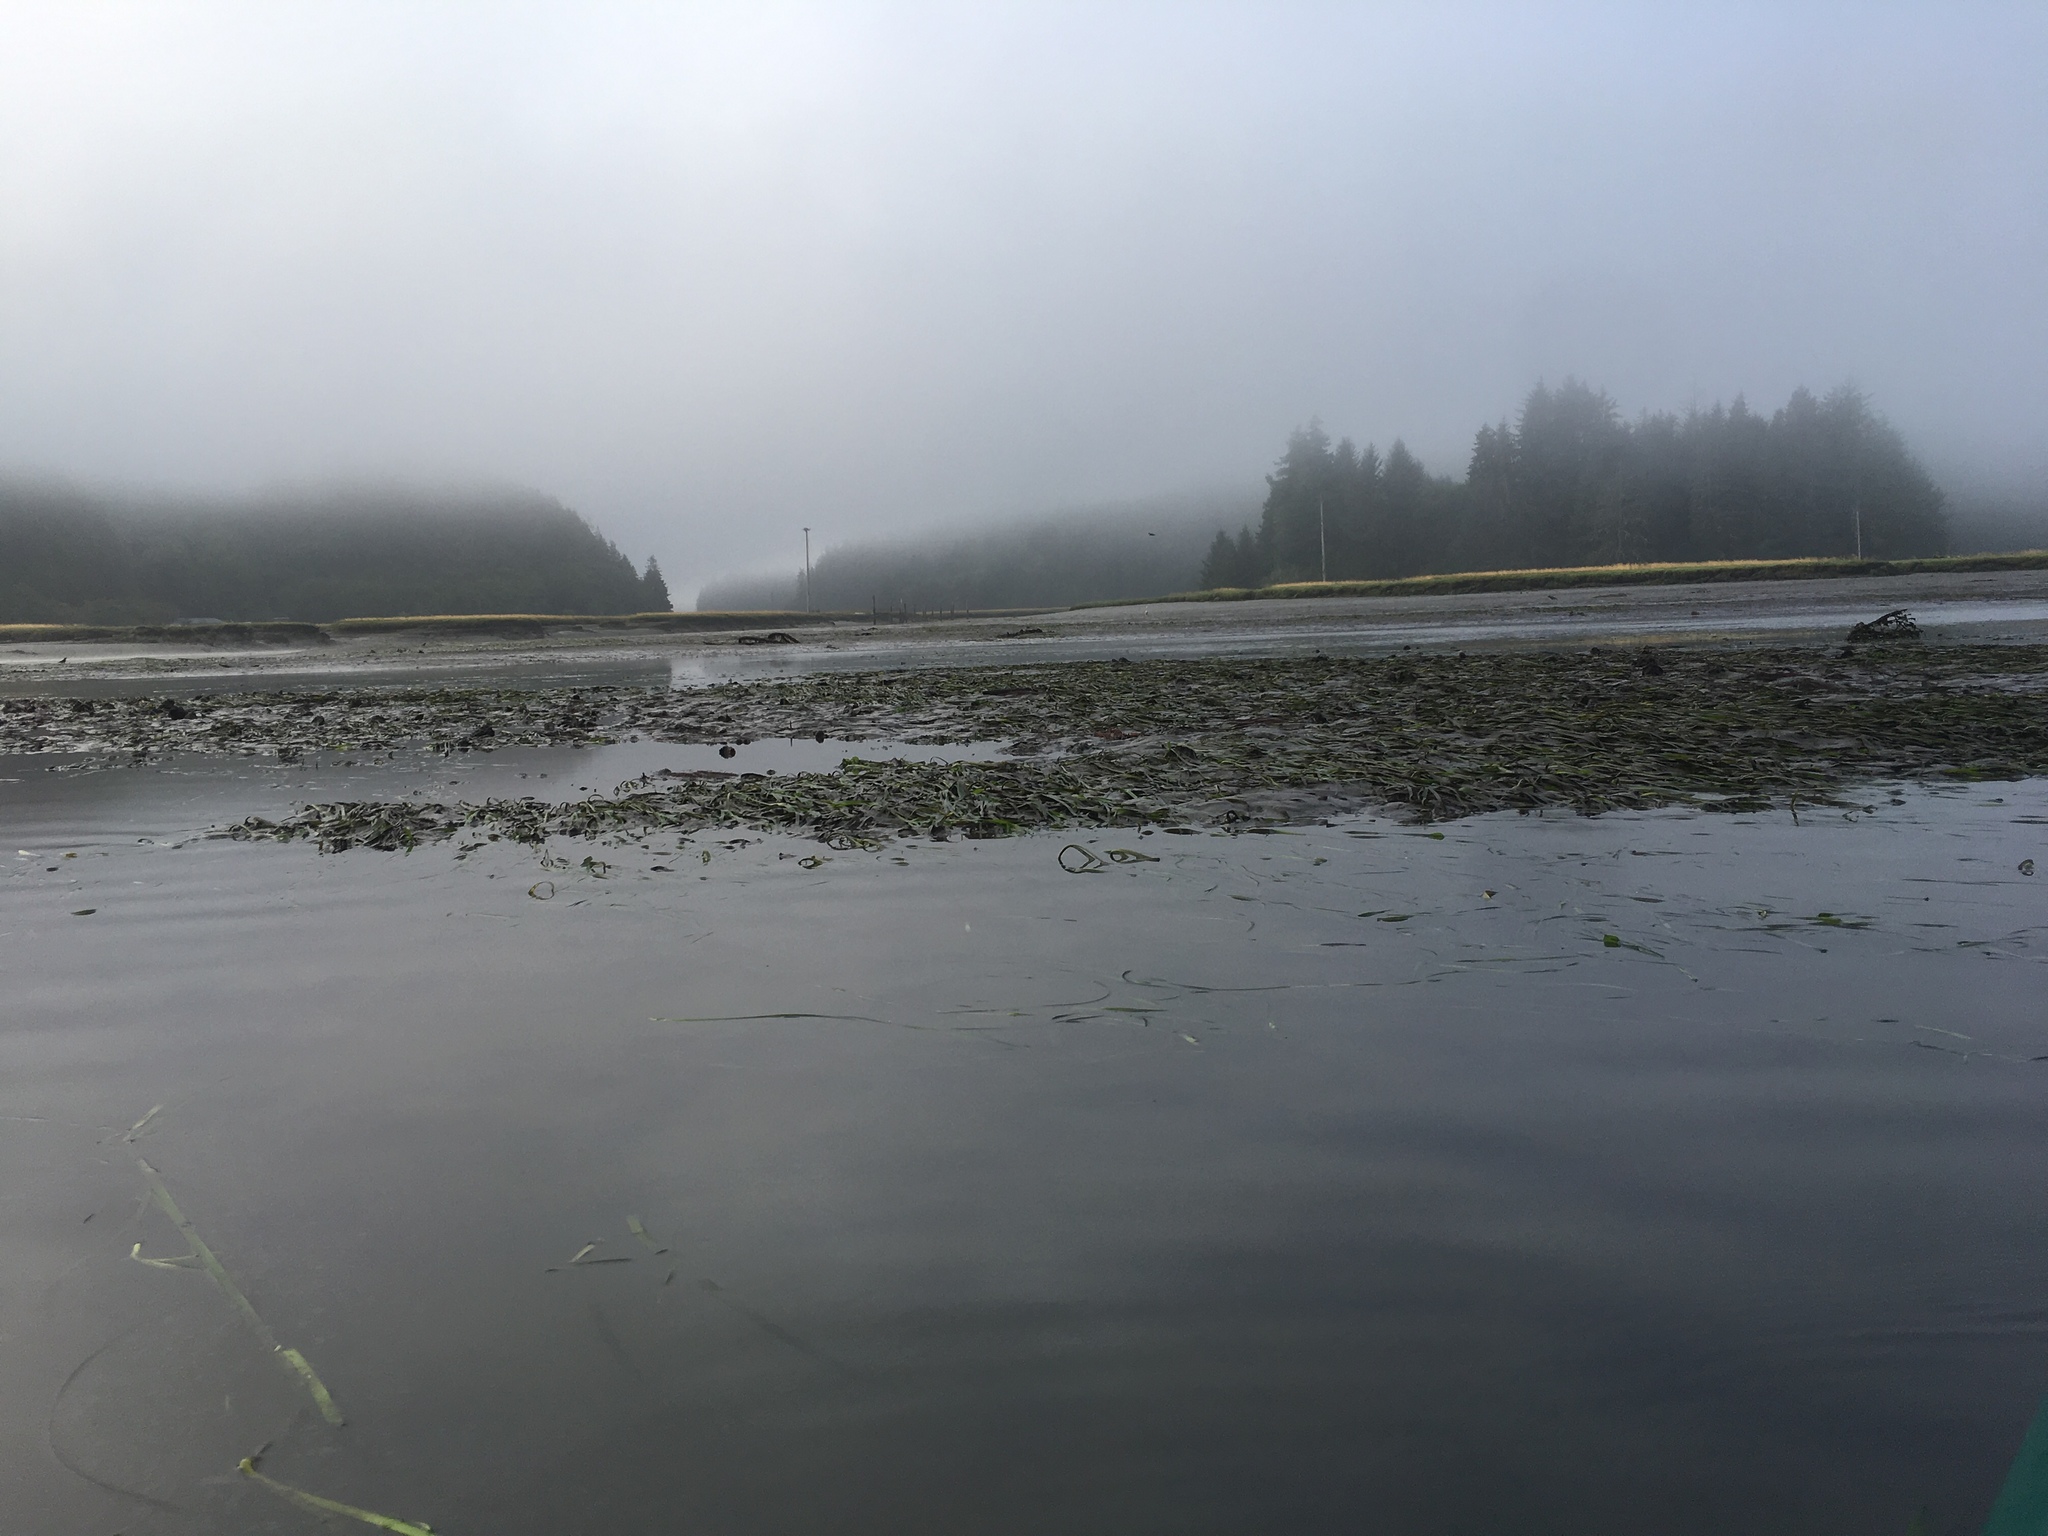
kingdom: Plantae
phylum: Tracheophyta
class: Liliopsida
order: Alismatales
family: Zosteraceae
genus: Zostera
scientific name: Zostera marina
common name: Eelgrass
